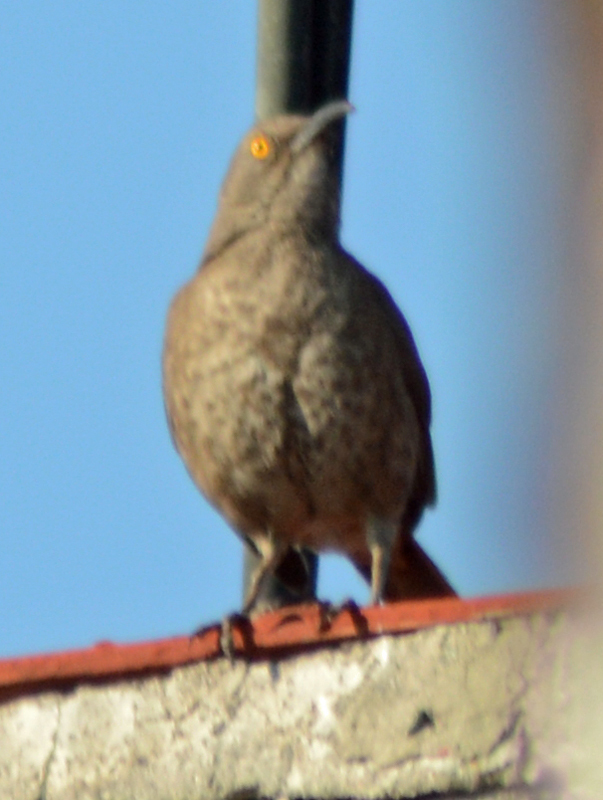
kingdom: Animalia
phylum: Chordata
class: Aves
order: Passeriformes
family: Mimidae
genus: Toxostoma
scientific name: Toxostoma curvirostre
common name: Curve-billed thrasher
